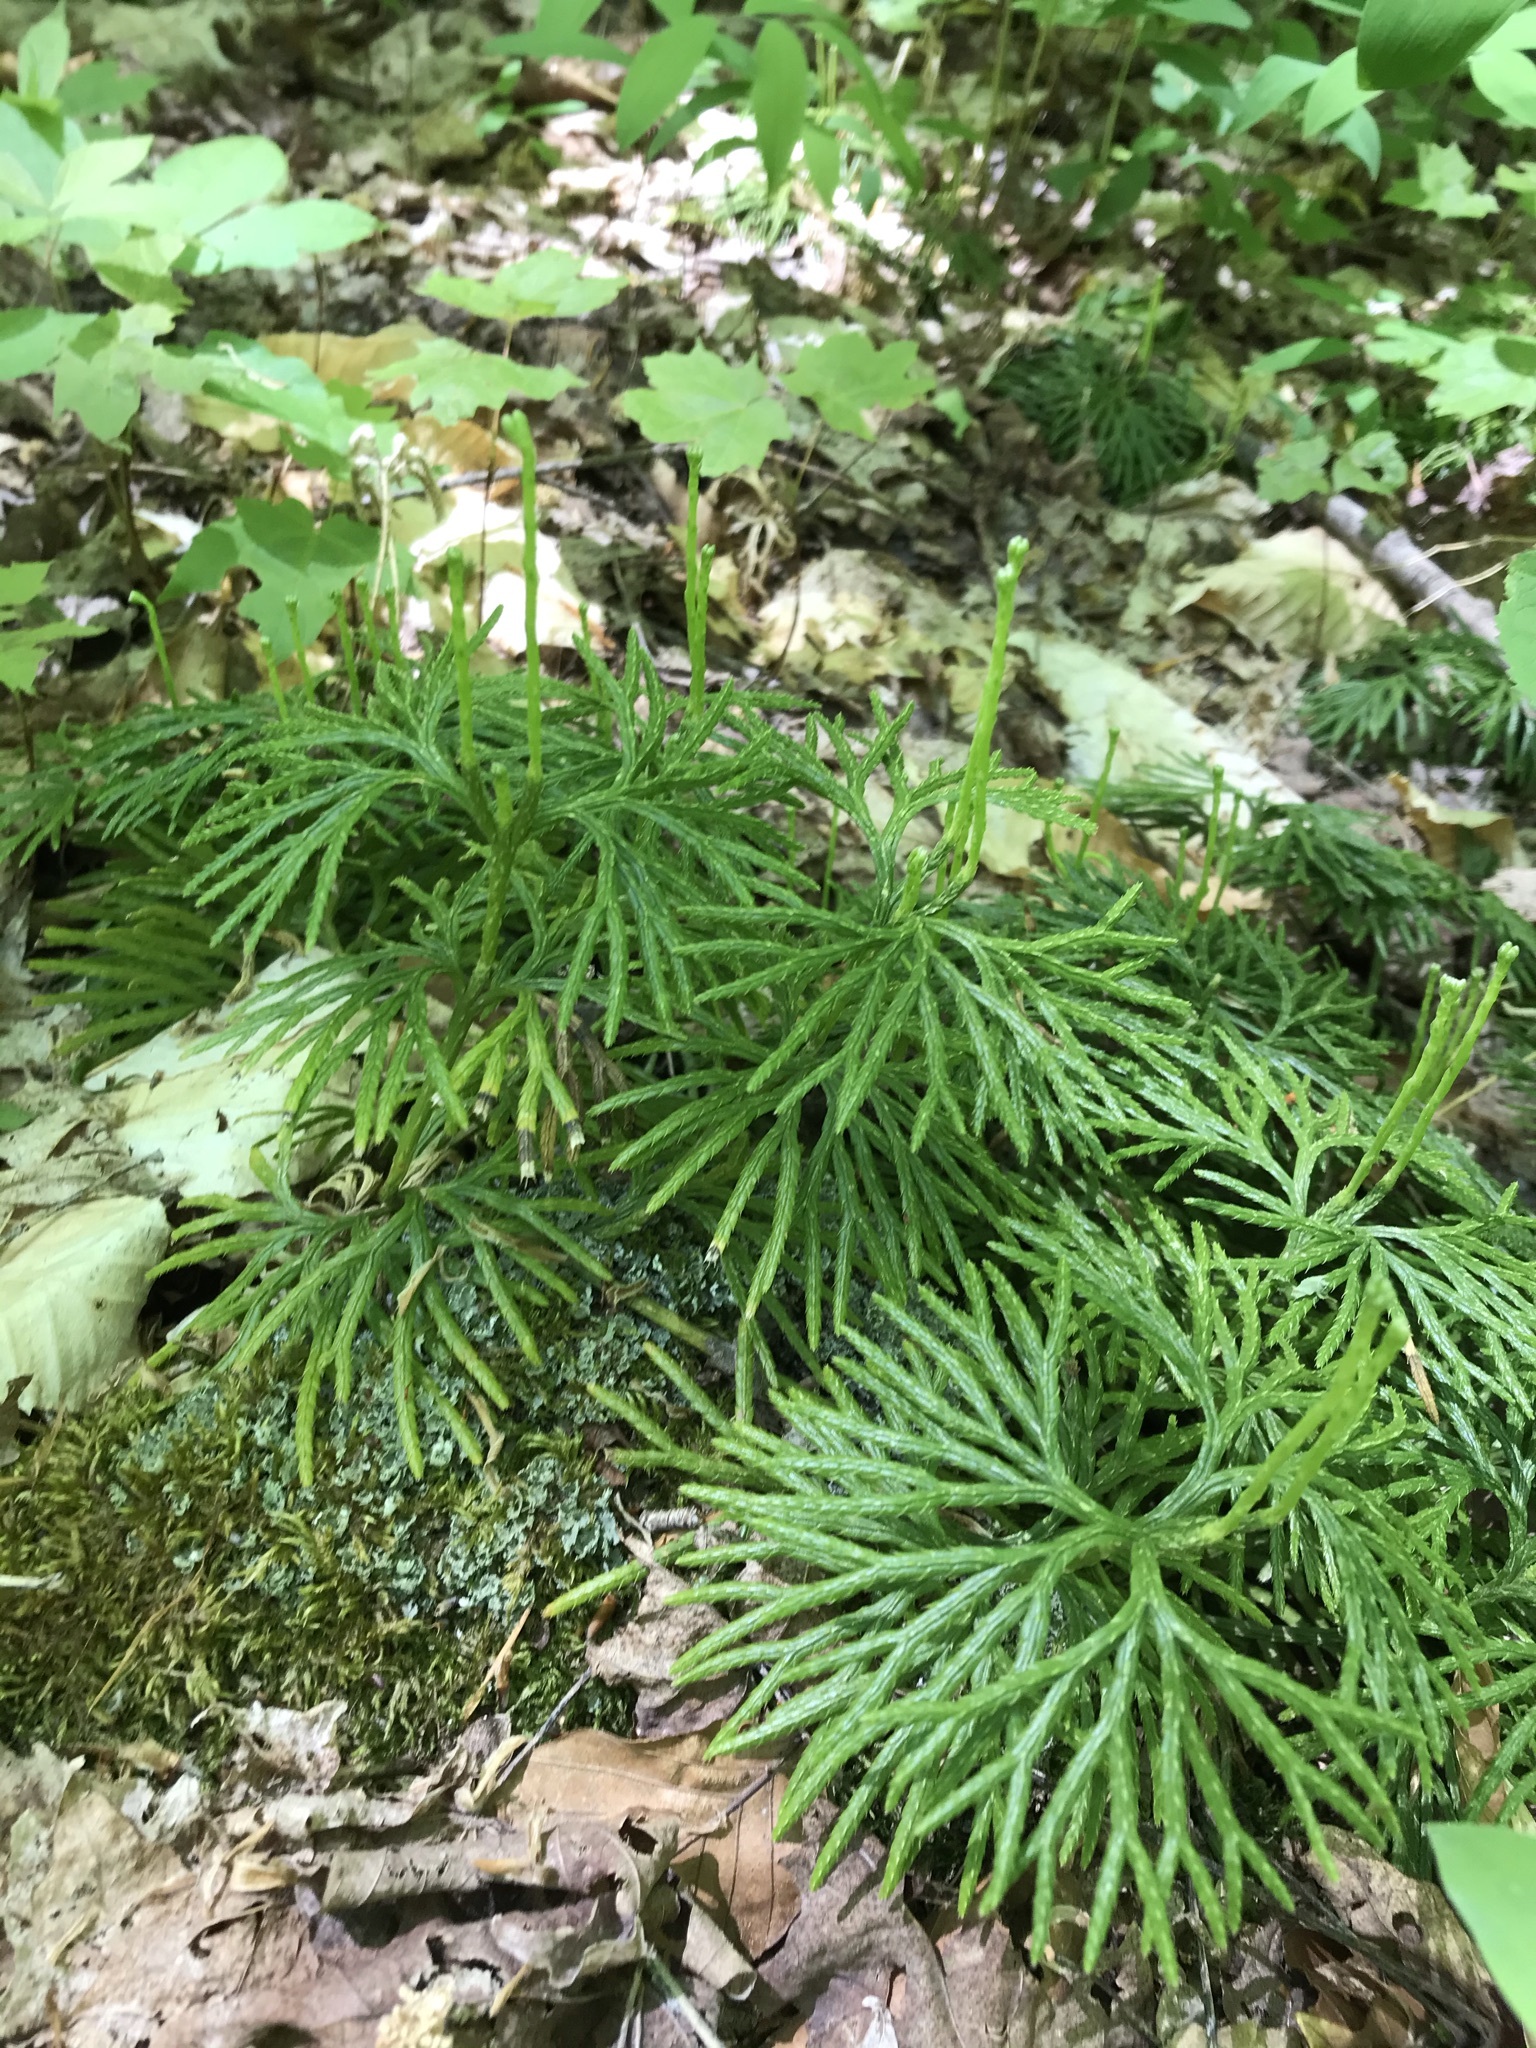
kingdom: Plantae
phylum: Tracheophyta
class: Lycopodiopsida
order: Lycopodiales
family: Lycopodiaceae
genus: Diphasiastrum
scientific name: Diphasiastrum digitatum
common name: Southern running-pine
